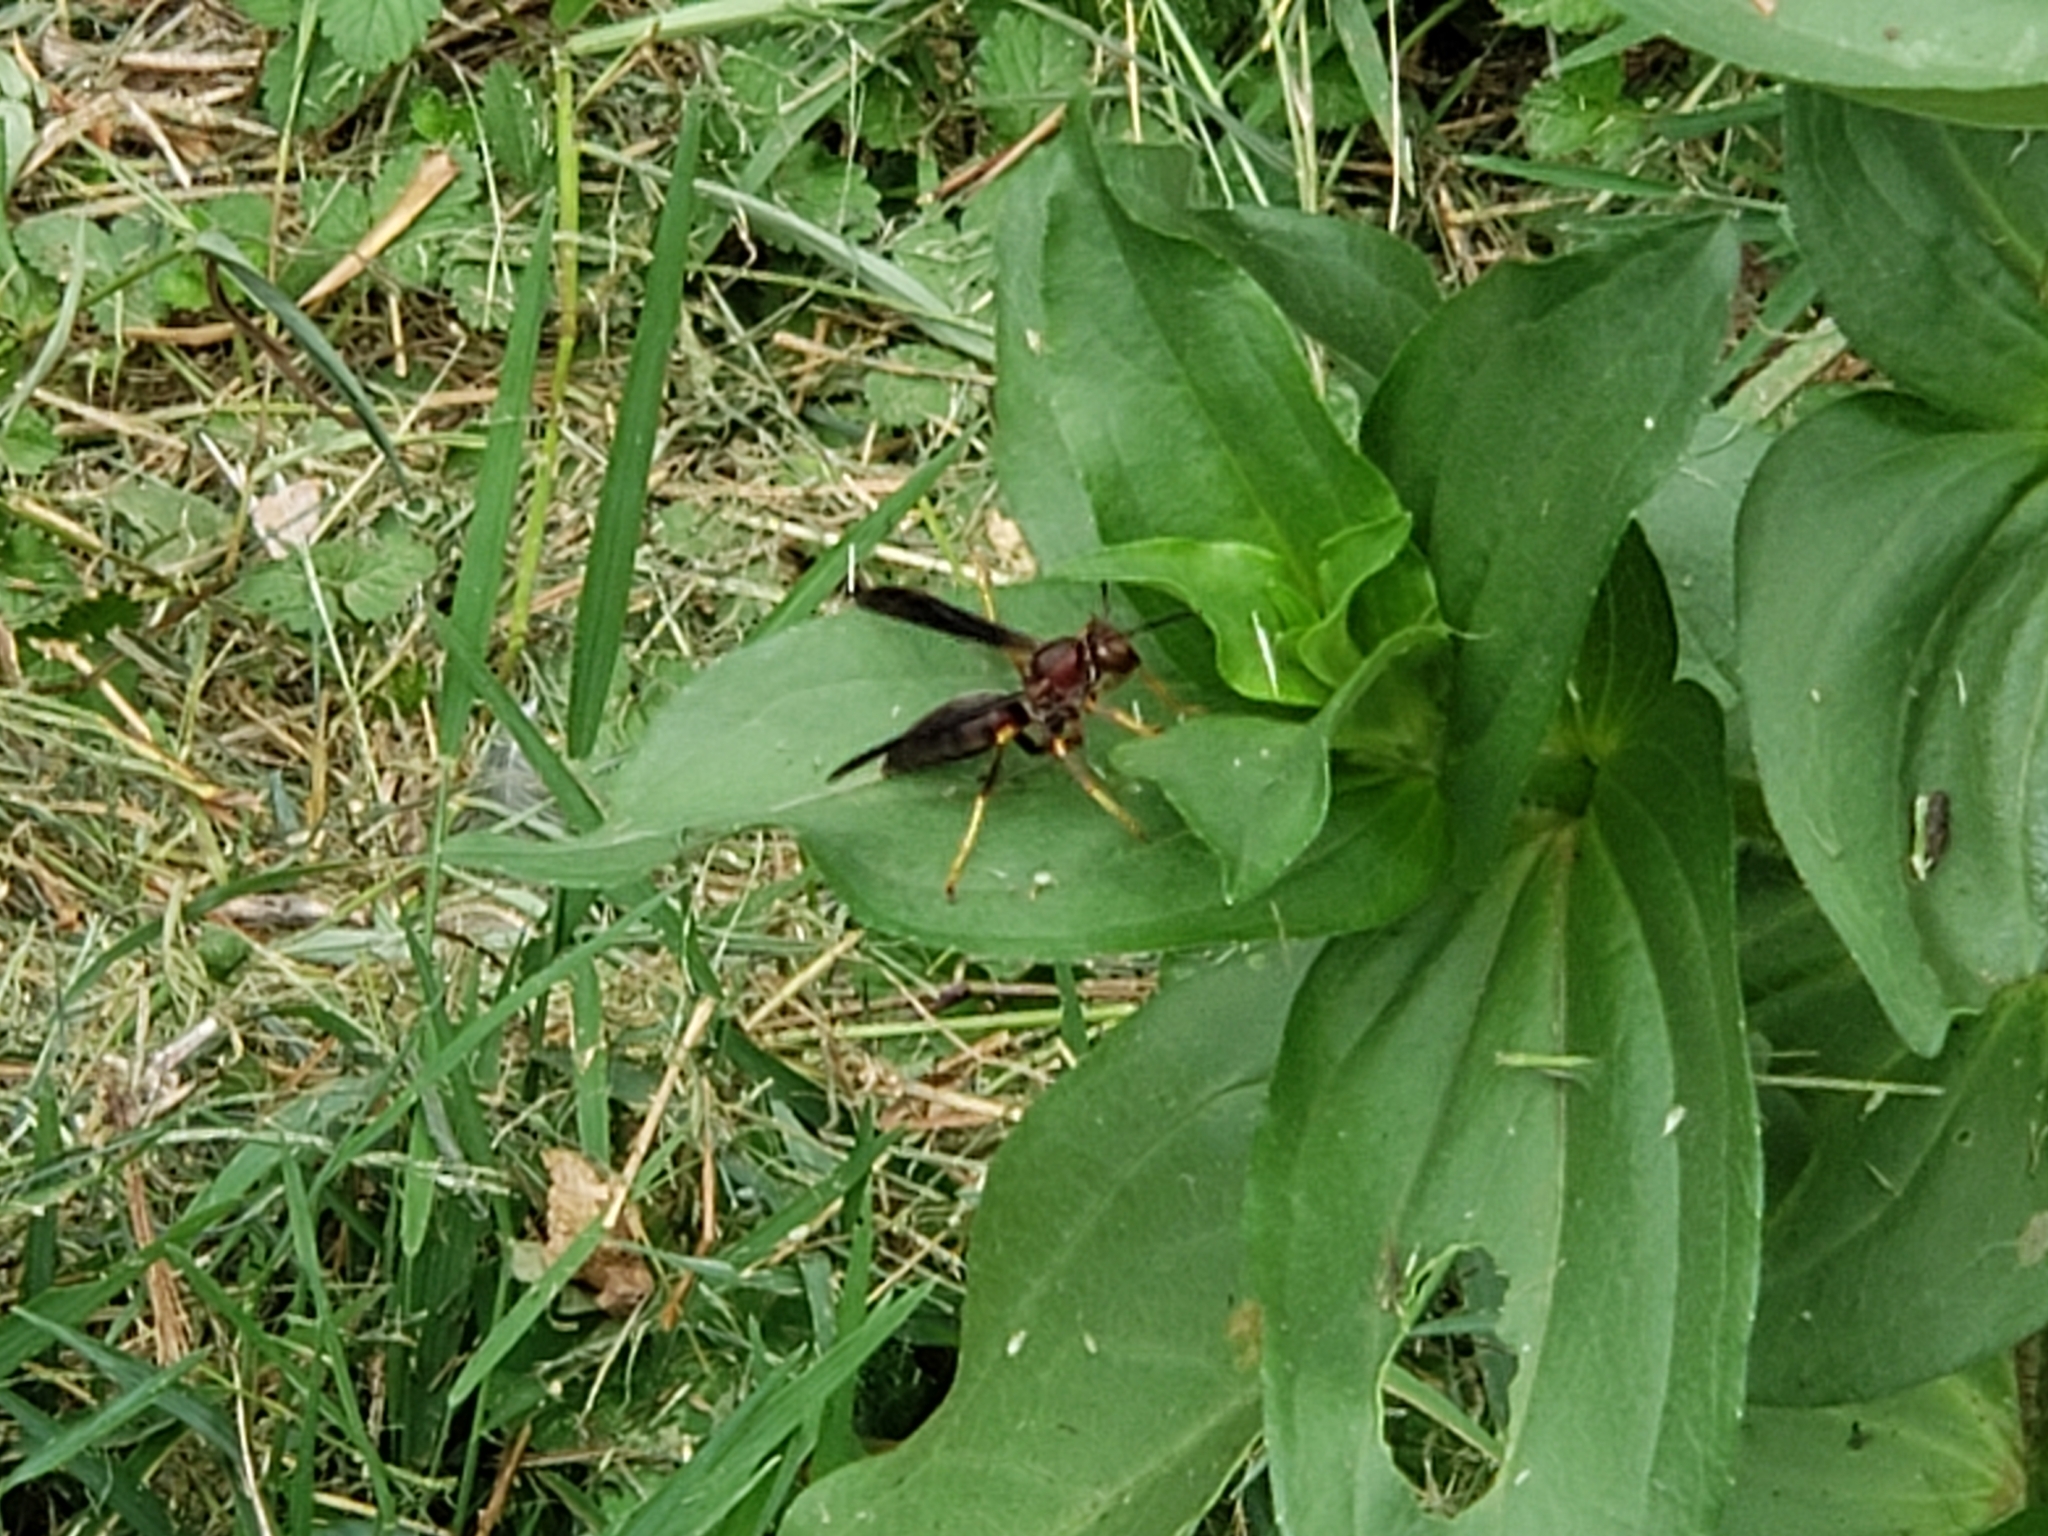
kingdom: Animalia
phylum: Arthropoda
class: Insecta
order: Hymenoptera
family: Eumenidae
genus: Polistes
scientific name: Polistes metricus
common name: Metric paper wasp
